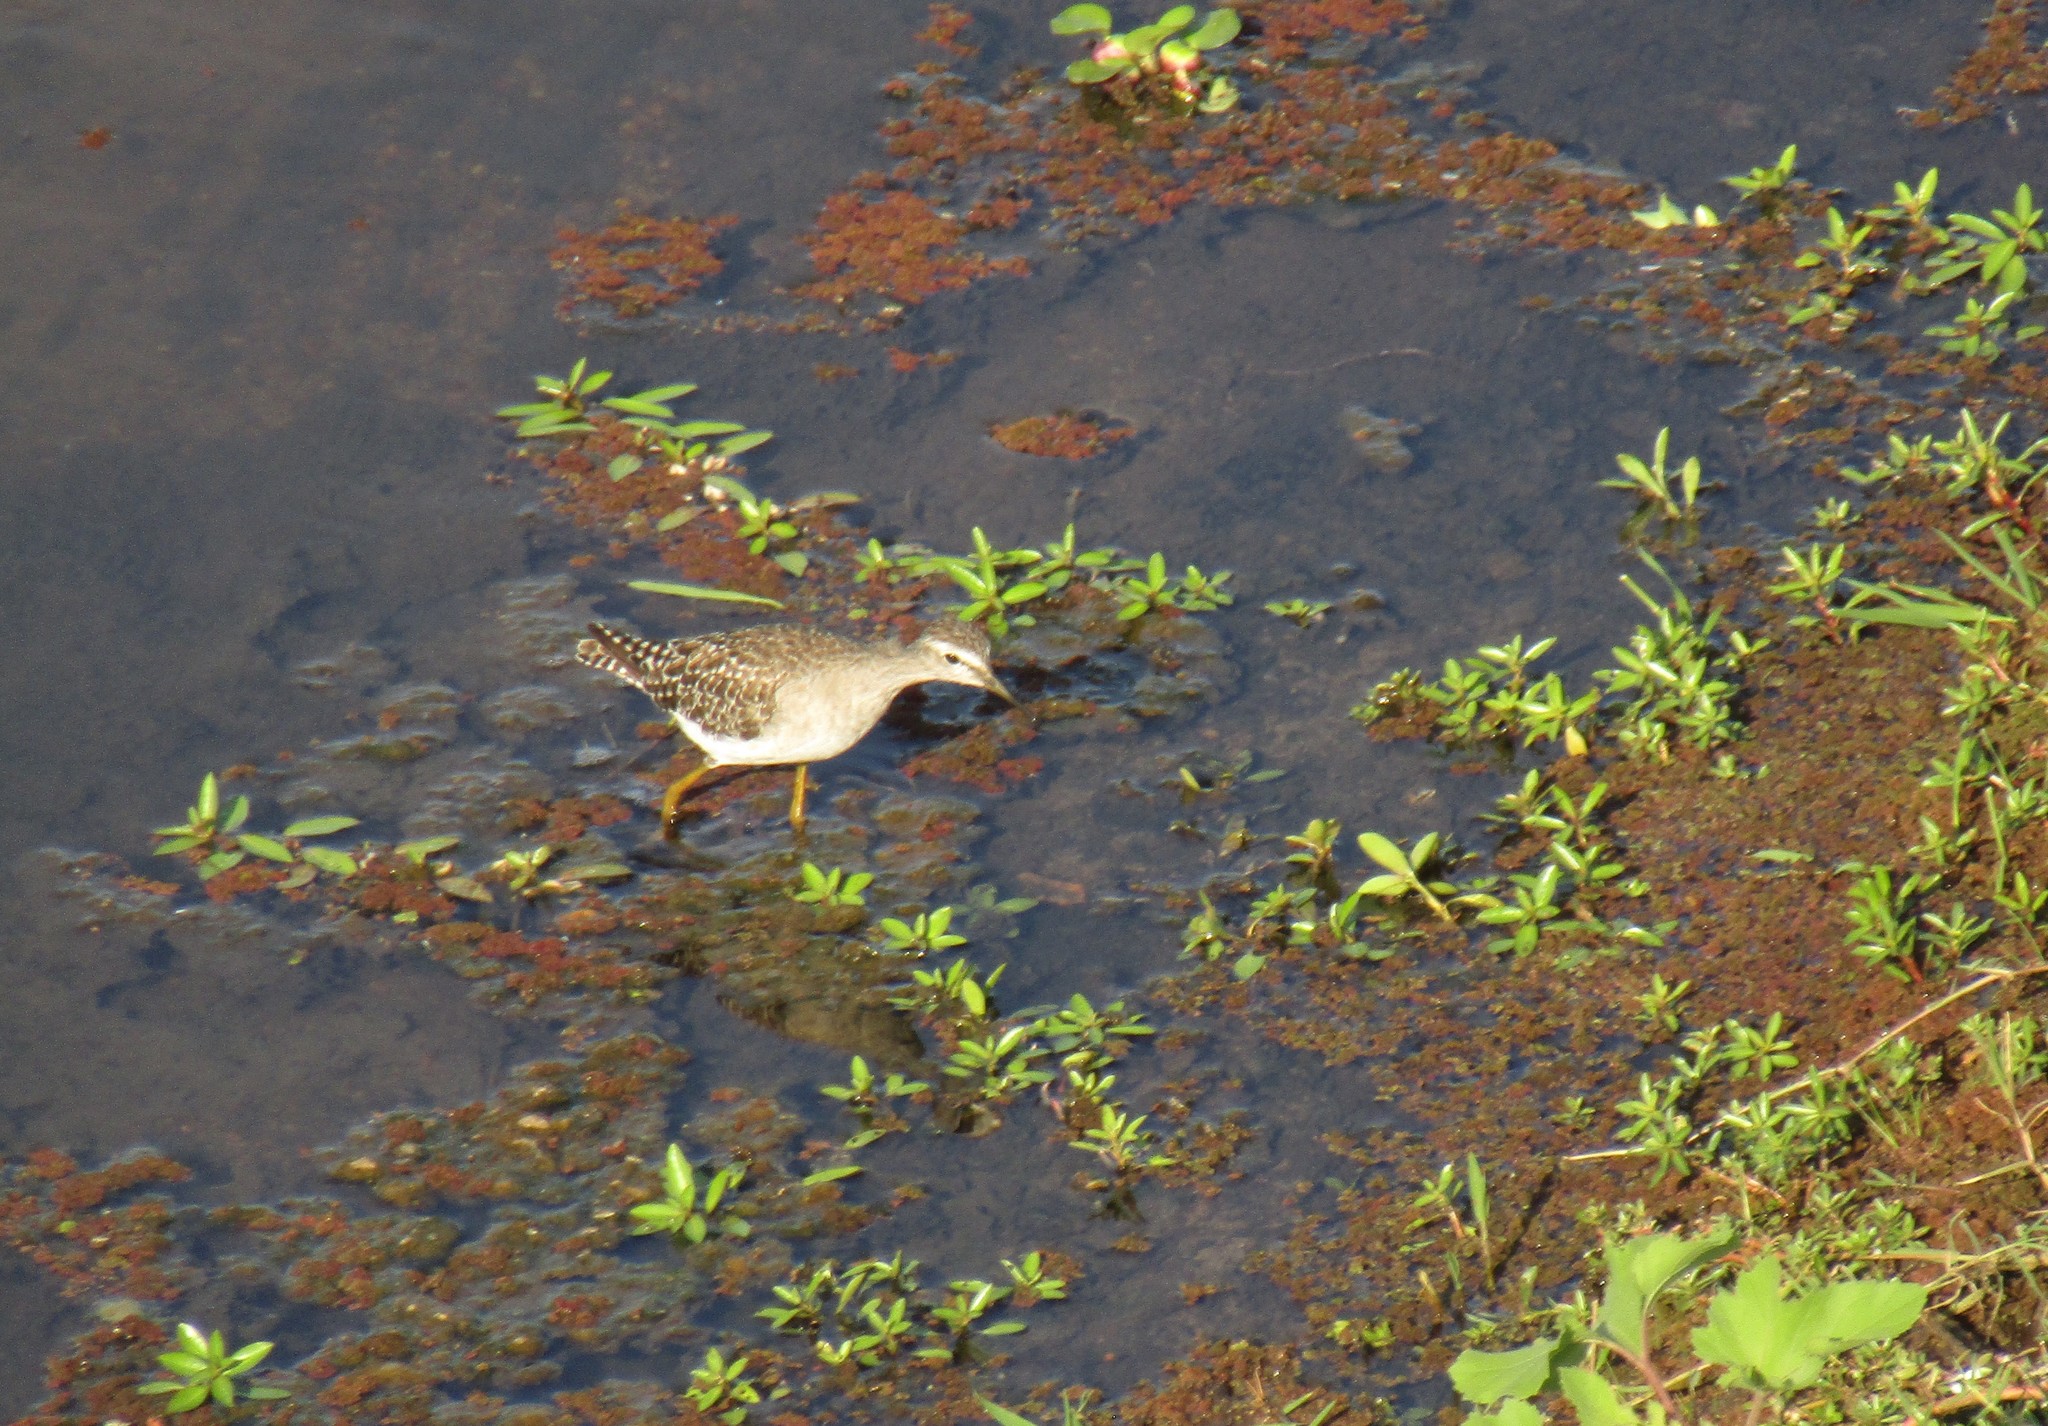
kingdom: Animalia
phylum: Chordata
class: Aves
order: Charadriiformes
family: Scolopacidae
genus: Tringa
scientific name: Tringa glareola
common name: Wood sandpiper
